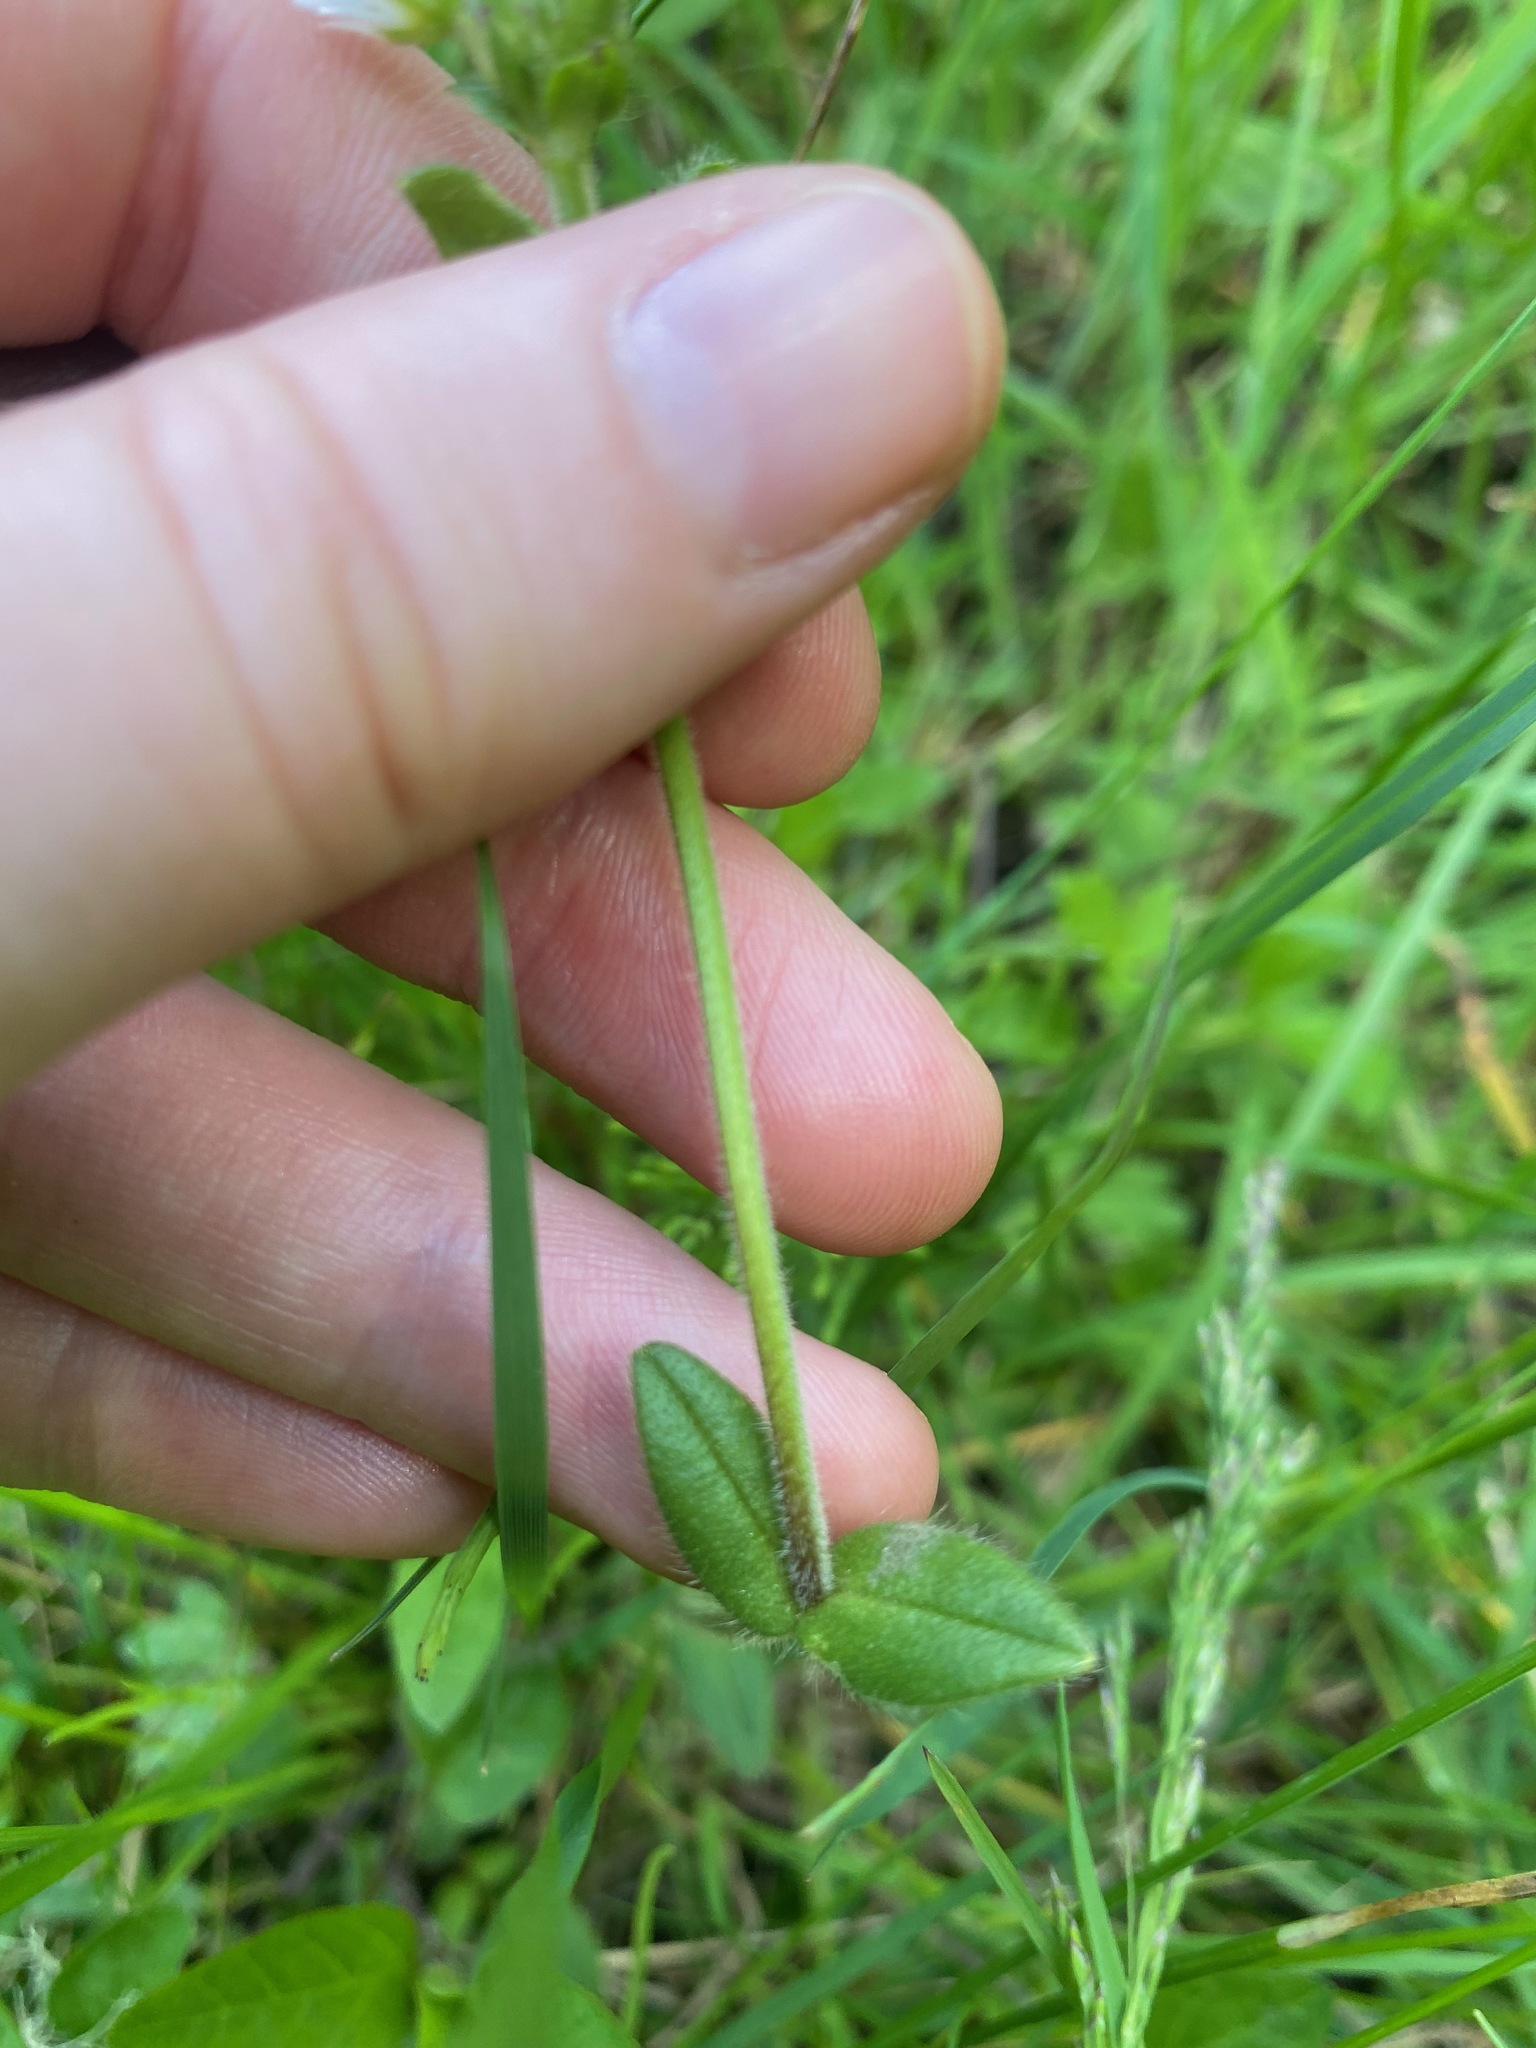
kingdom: Plantae
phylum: Tracheophyta
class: Magnoliopsida
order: Caryophyllales
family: Caryophyllaceae
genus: Cerastium
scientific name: Cerastium fontanum
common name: Common mouse-ear
